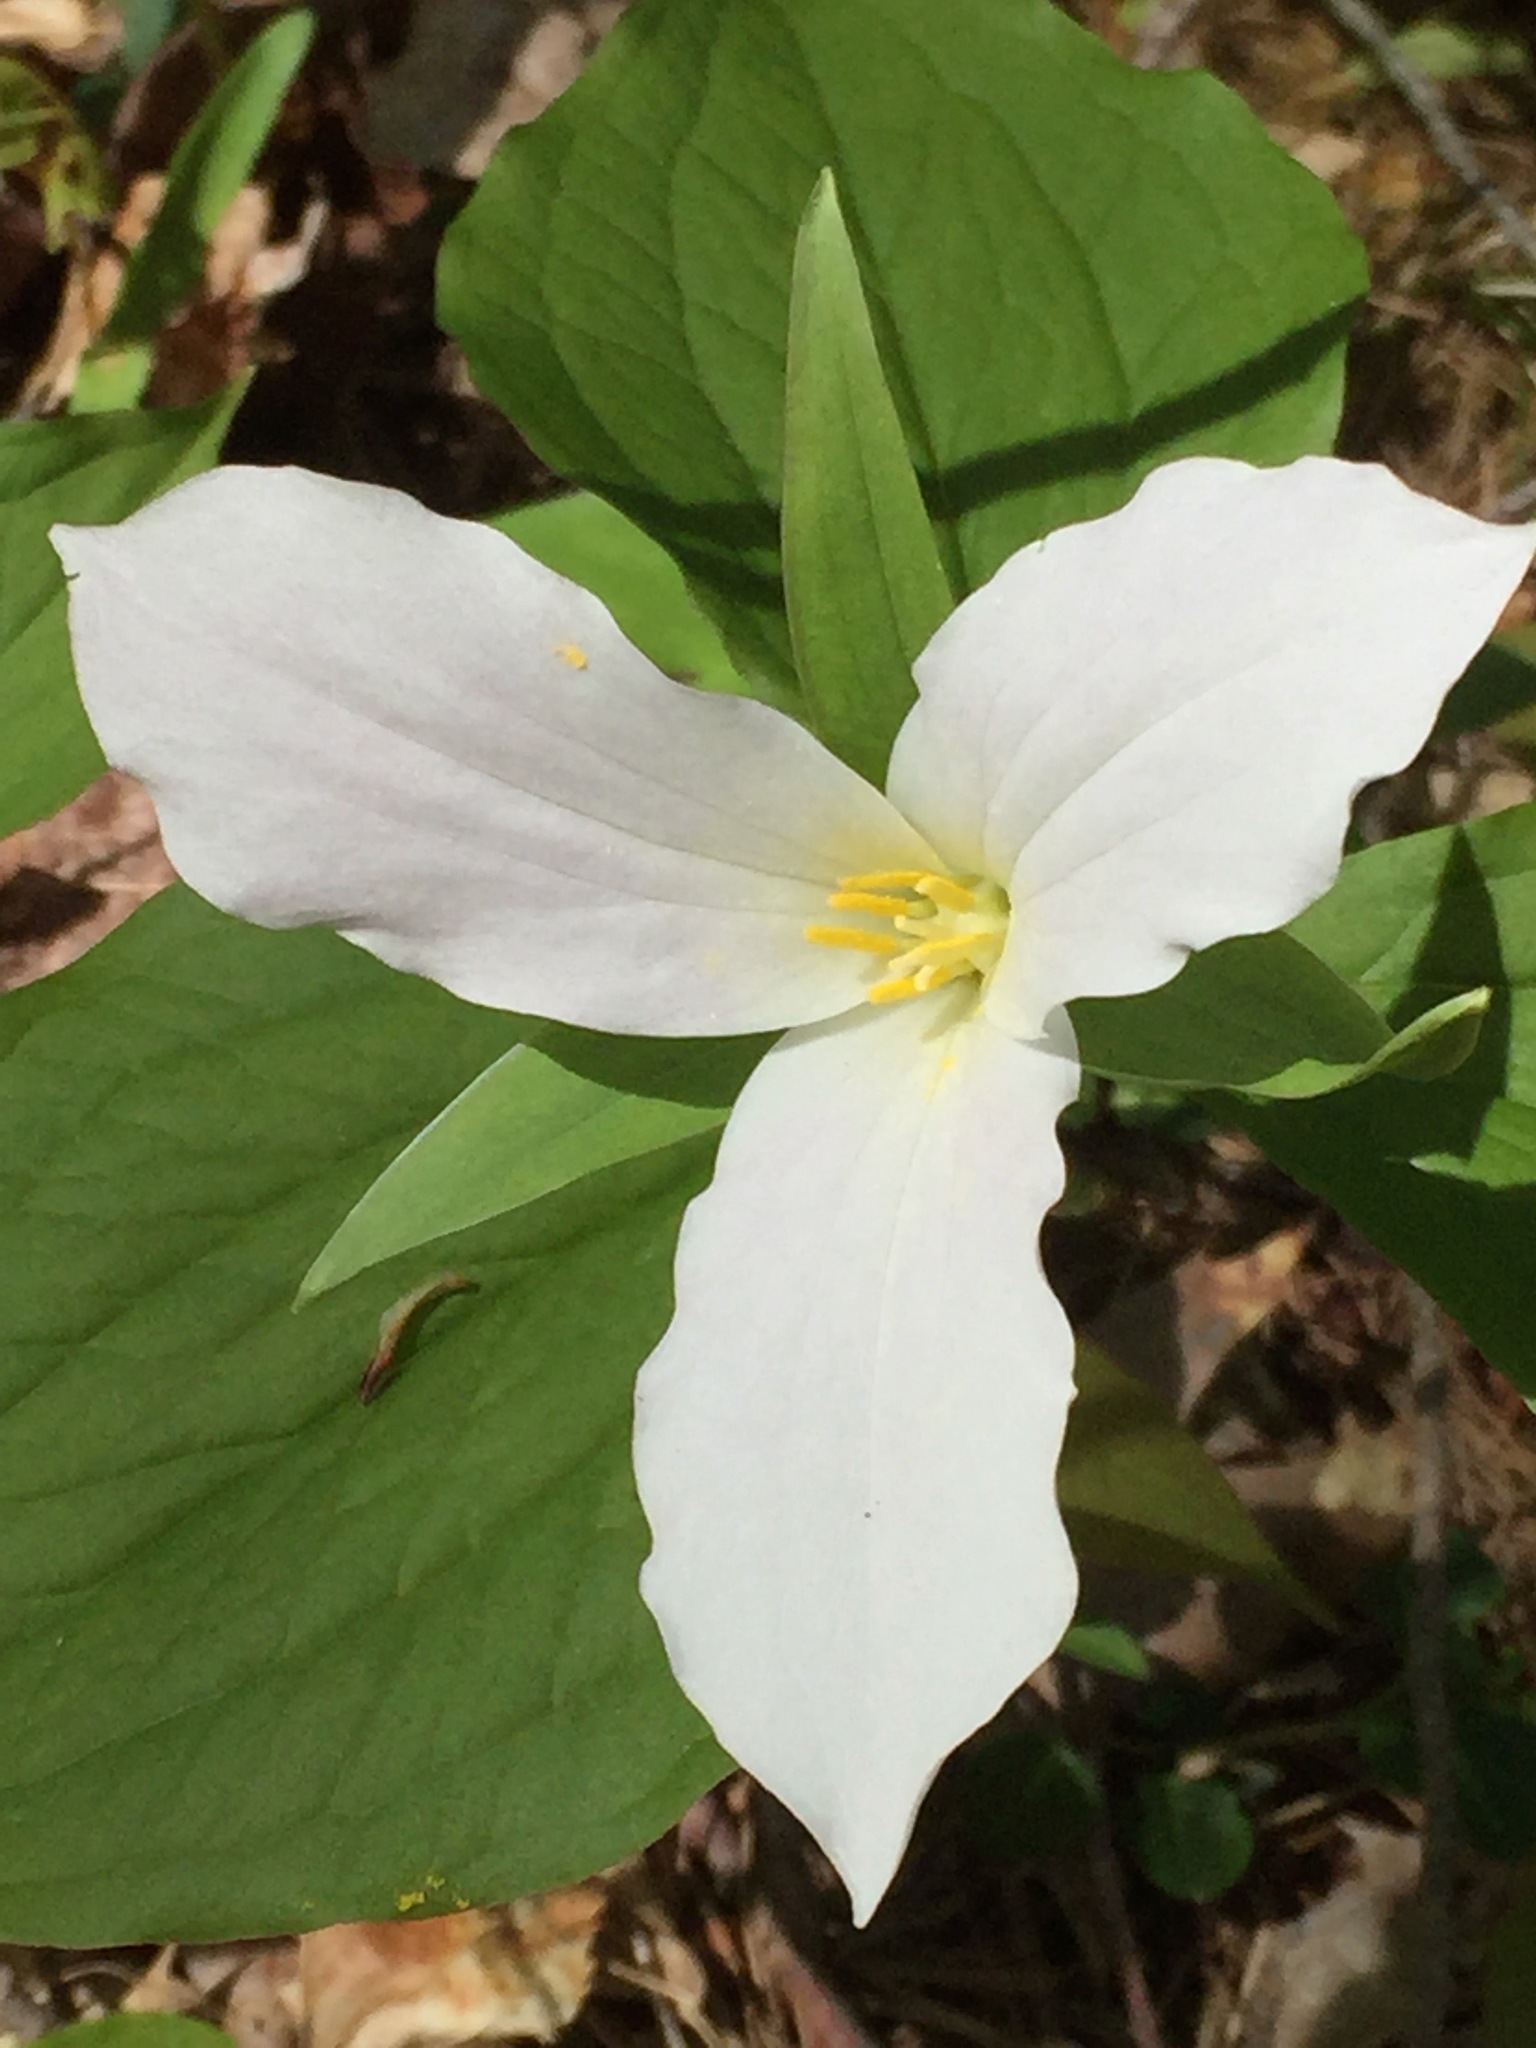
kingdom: Plantae
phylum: Tracheophyta
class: Liliopsida
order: Liliales
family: Melanthiaceae
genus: Trillium
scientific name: Trillium grandiflorum
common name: Great white trillium
